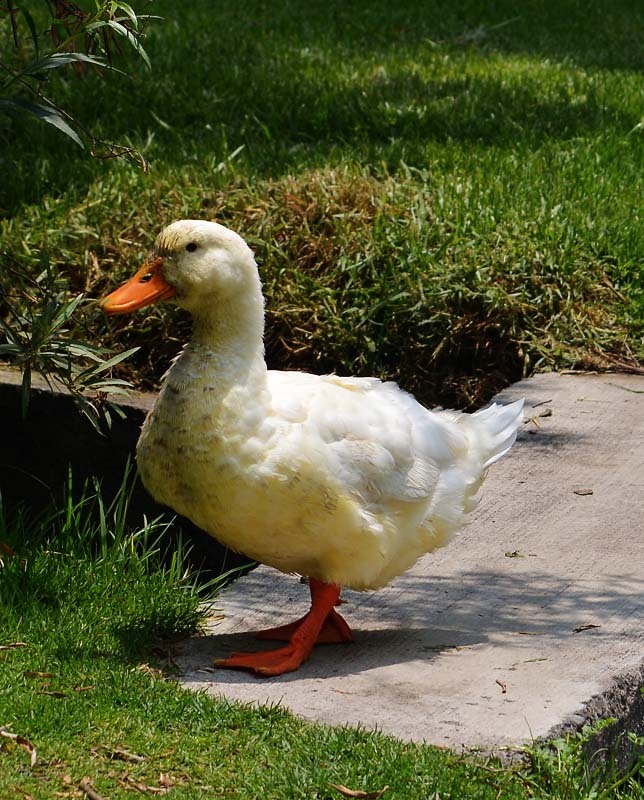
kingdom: Animalia
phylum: Chordata
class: Aves
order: Anseriformes
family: Anatidae
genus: Anas
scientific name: Anas platyrhynchos
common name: Mallard
